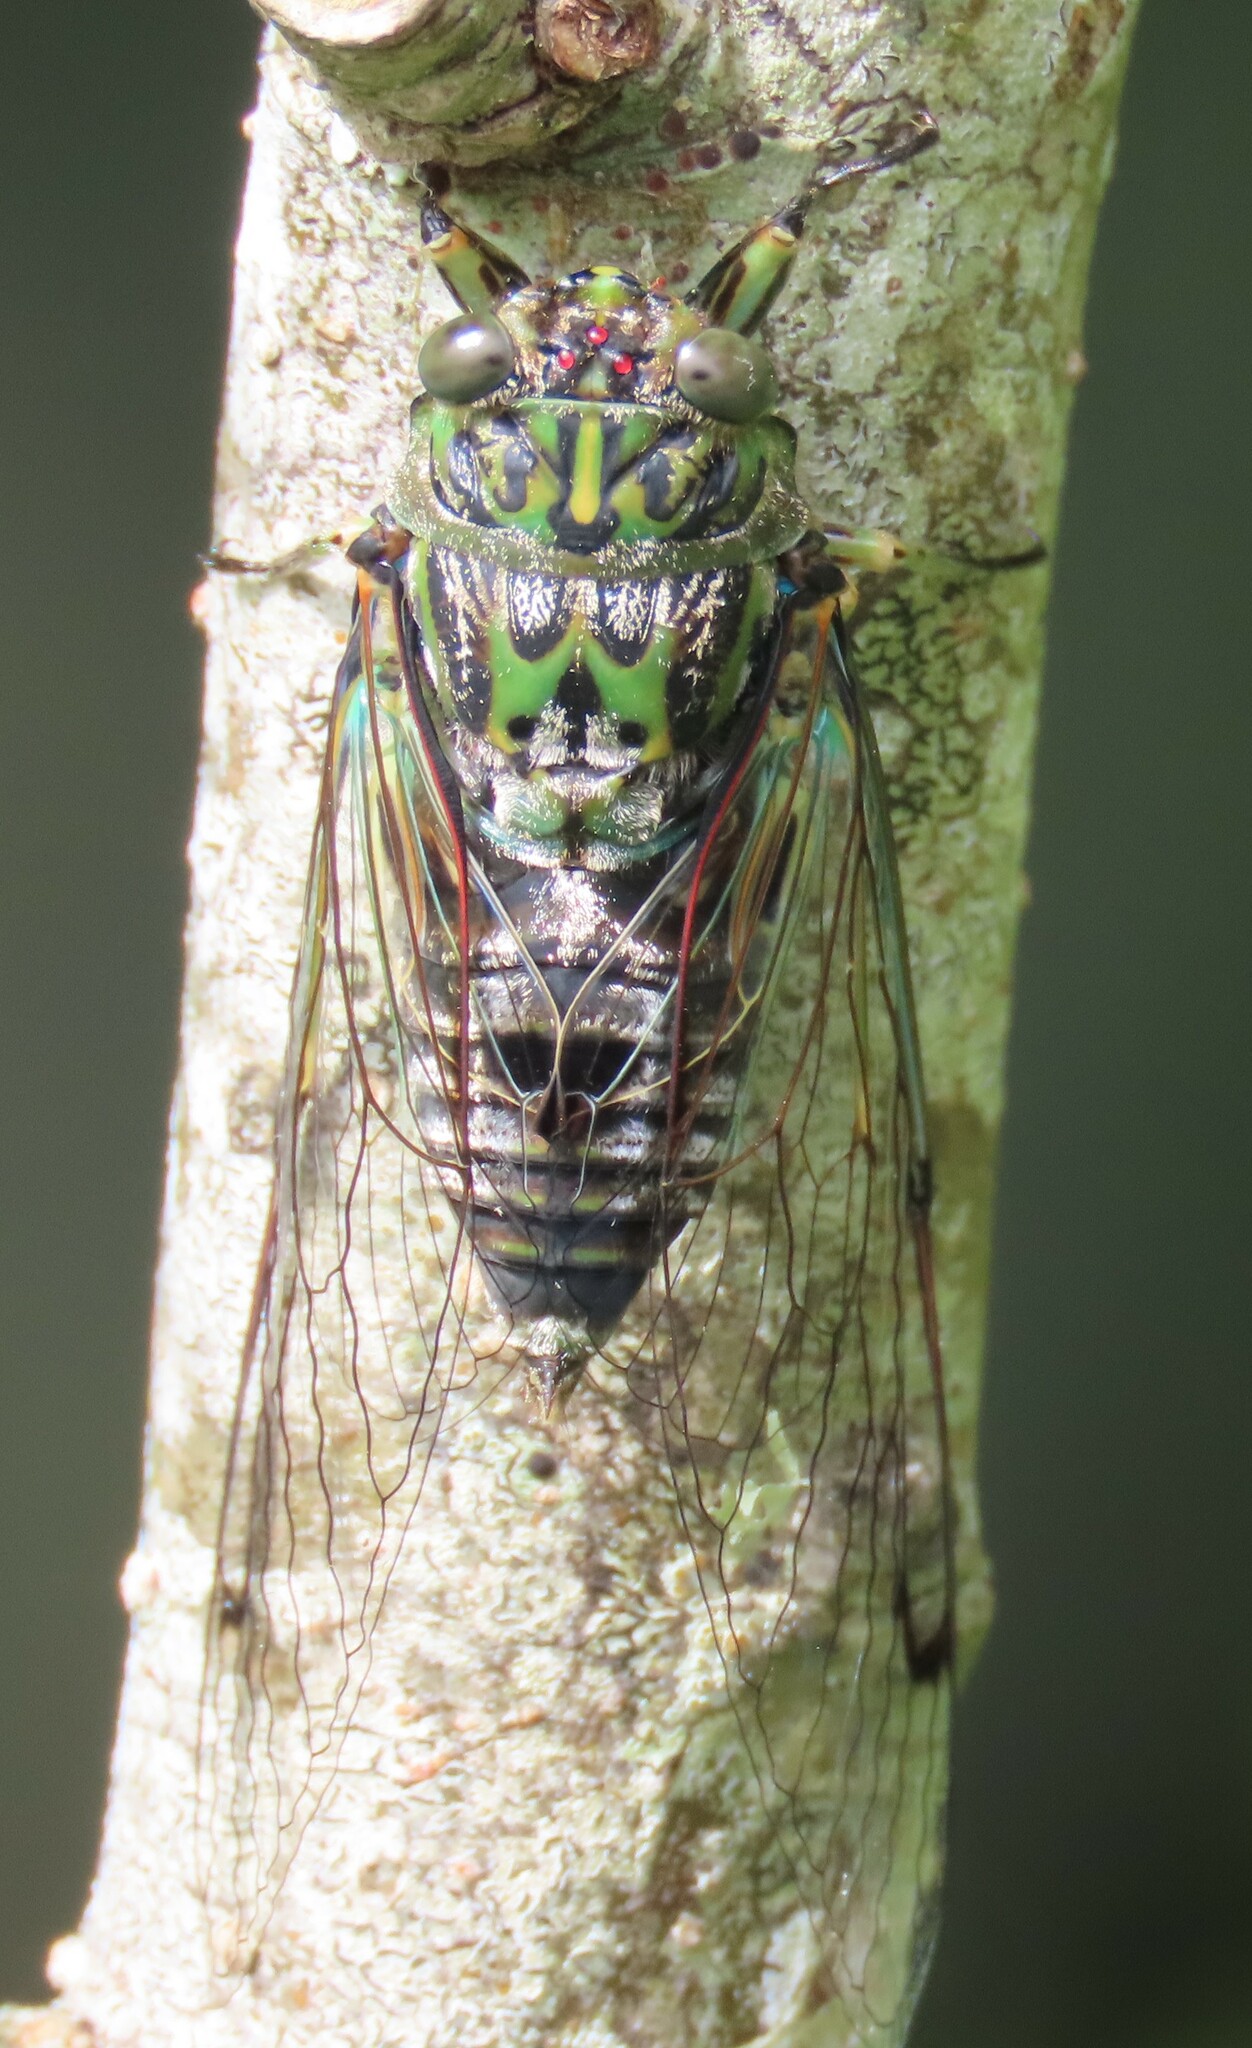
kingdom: Animalia
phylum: Arthropoda
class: Insecta
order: Hemiptera
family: Cicadidae
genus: Amphipsalta
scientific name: Amphipsalta zelandica
